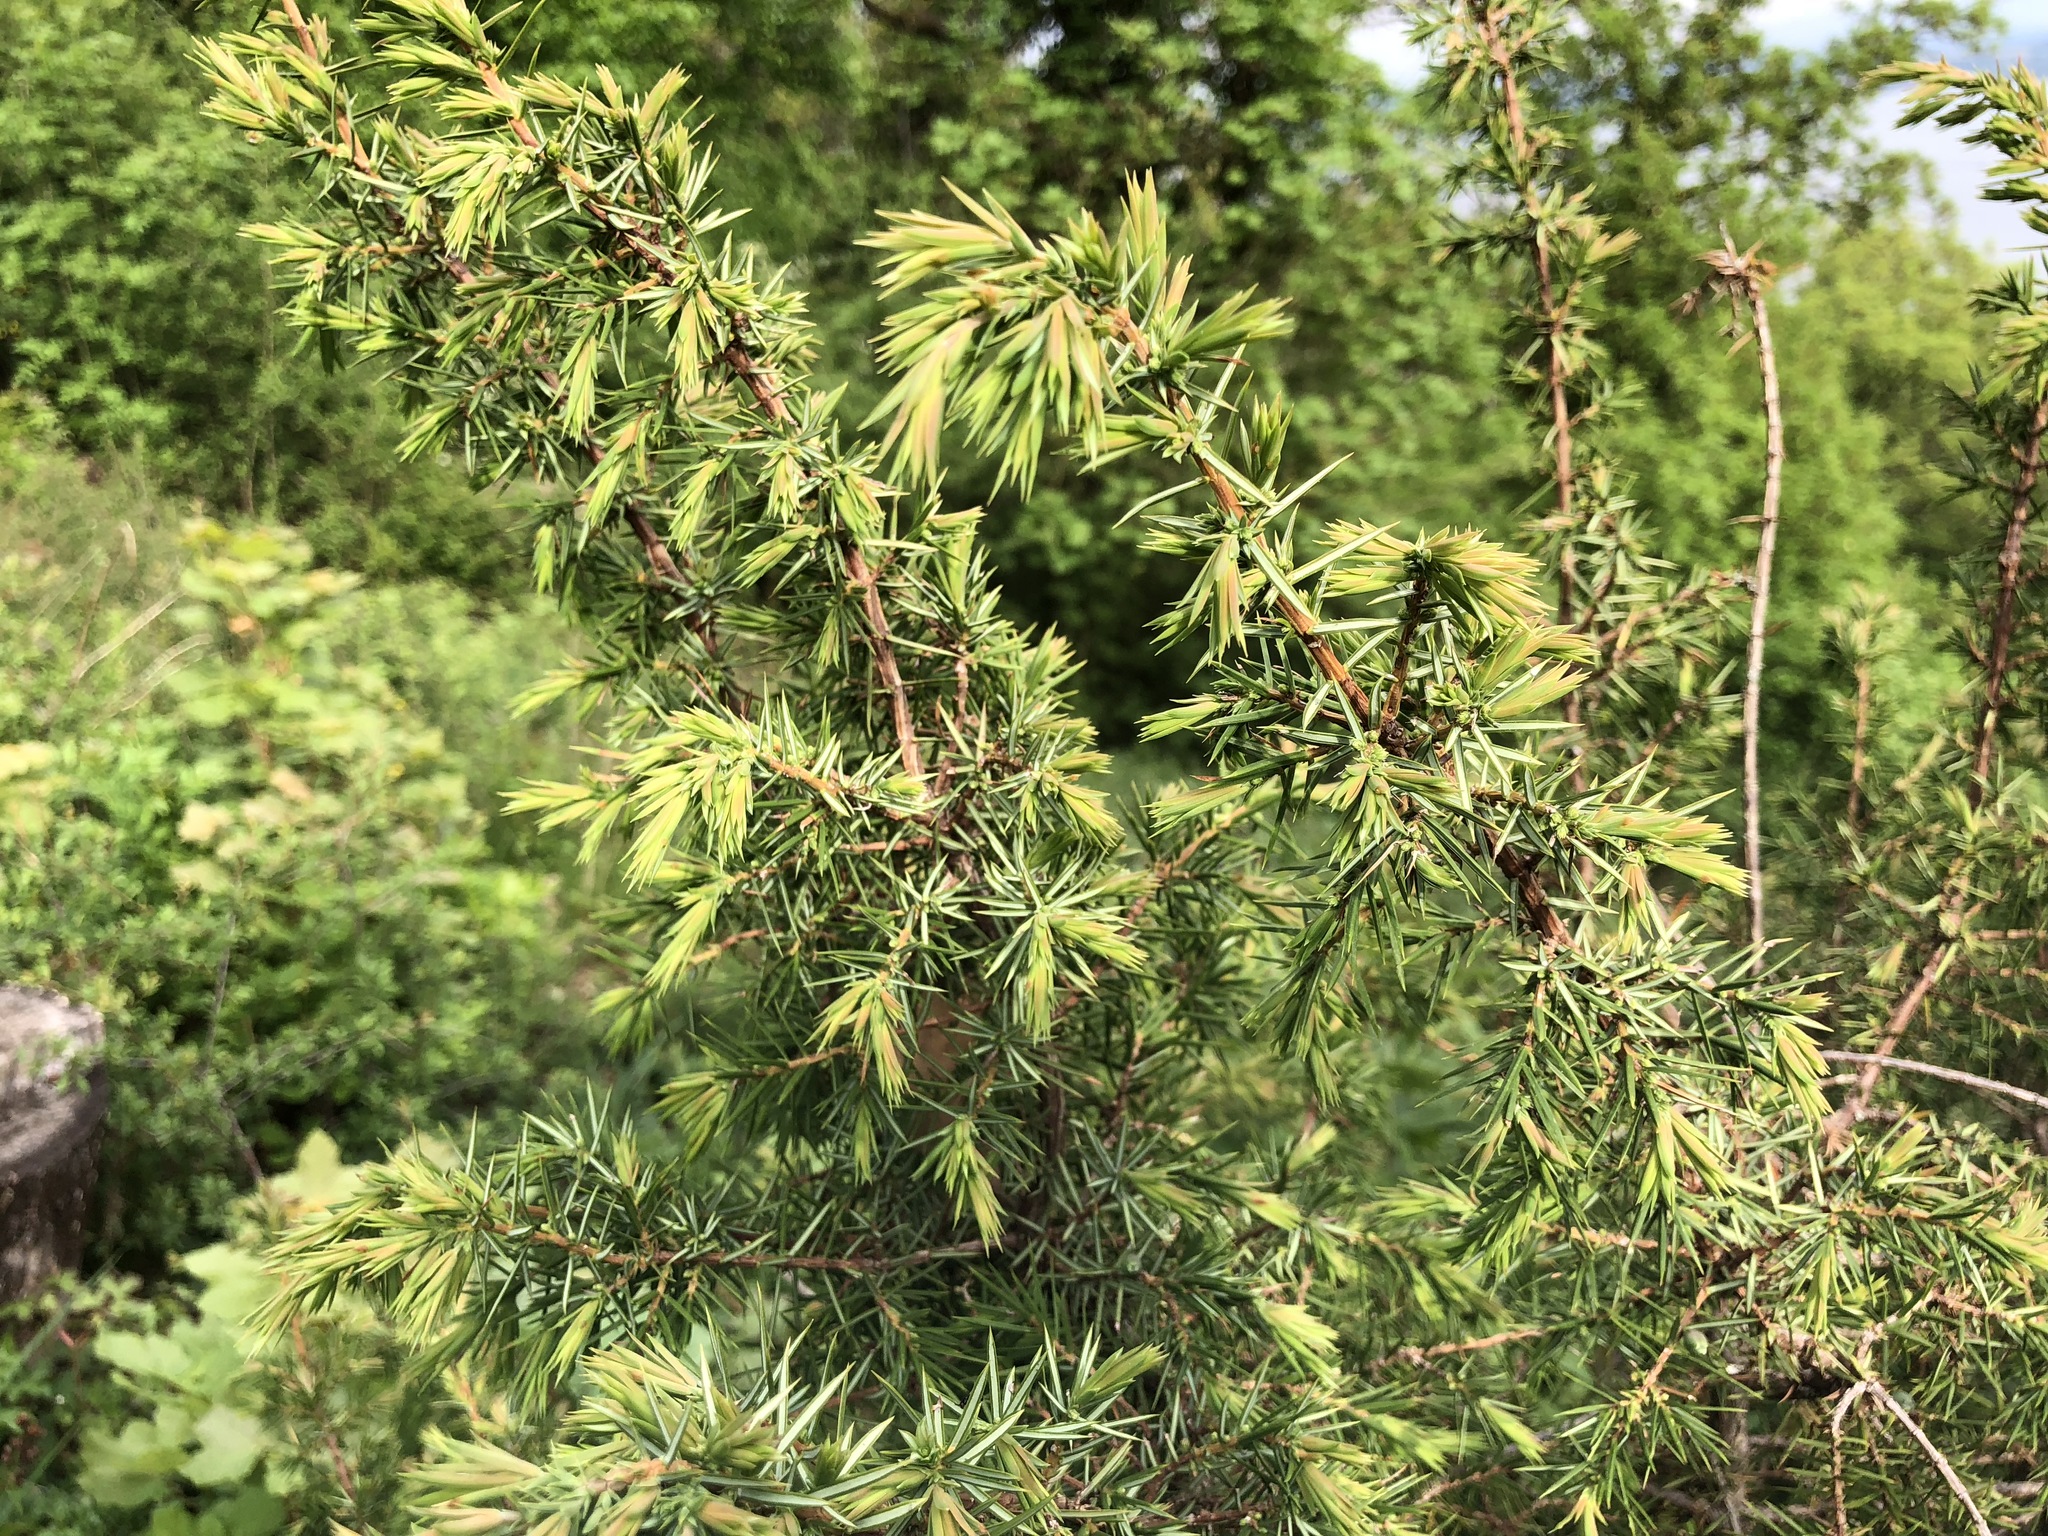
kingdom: Plantae
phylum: Tracheophyta
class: Pinopsida
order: Pinales
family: Cupressaceae
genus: Juniperus
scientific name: Juniperus communis
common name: Common juniper
